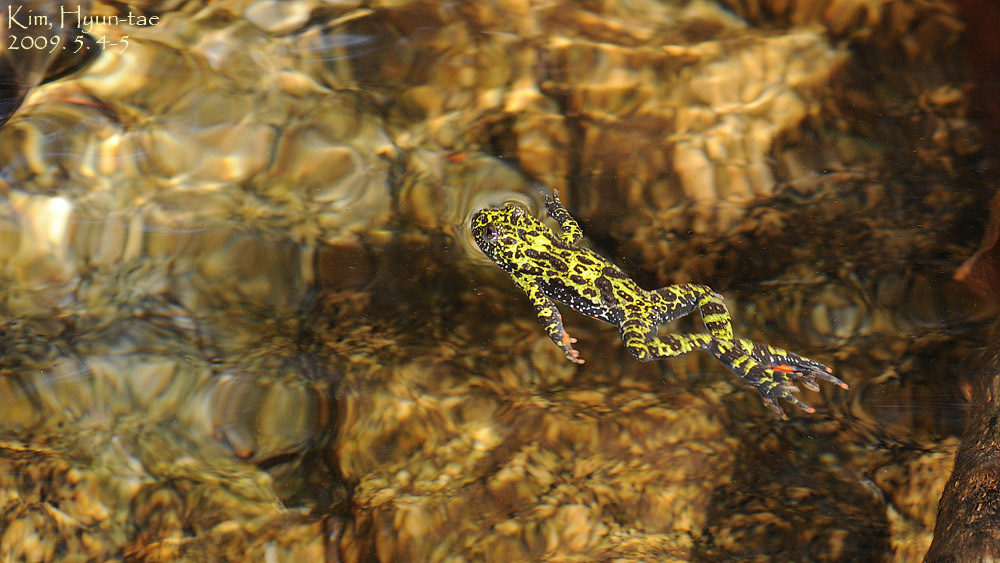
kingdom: Animalia
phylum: Chordata
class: Amphibia
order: Anura
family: Bombinatoridae
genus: Bombina
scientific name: Bombina orientalis
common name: Oriental firebelly toad
